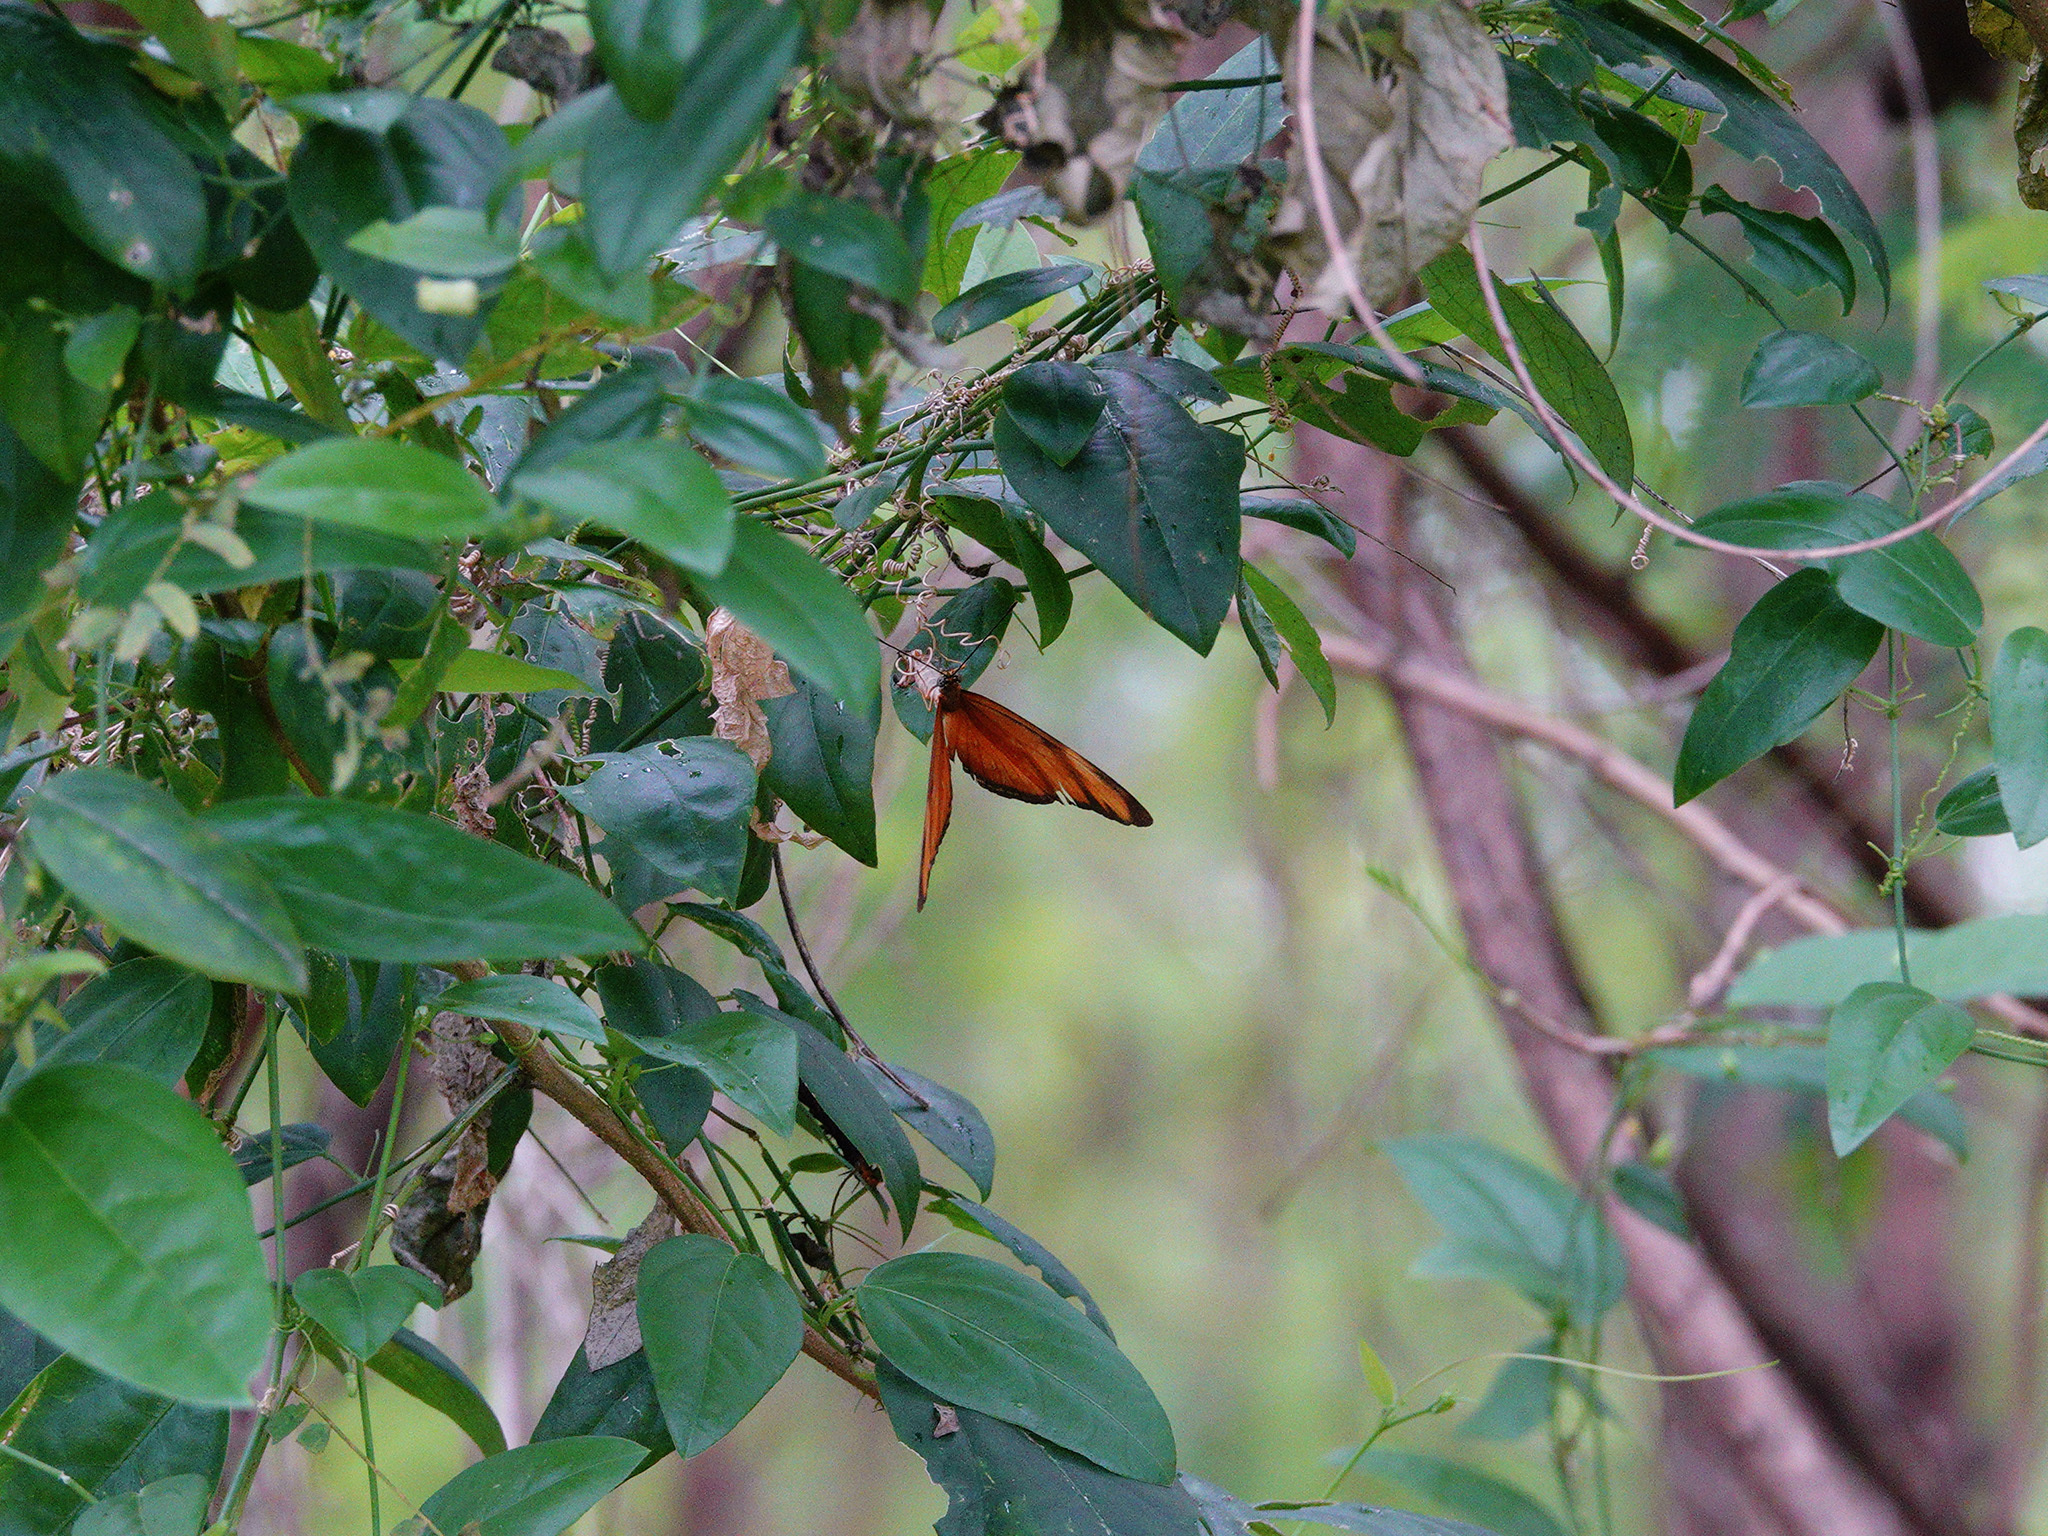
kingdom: Animalia
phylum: Arthropoda
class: Insecta
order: Lepidoptera
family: Nymphalidae
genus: Dryas
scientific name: Dryas iulia
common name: Flambeau
